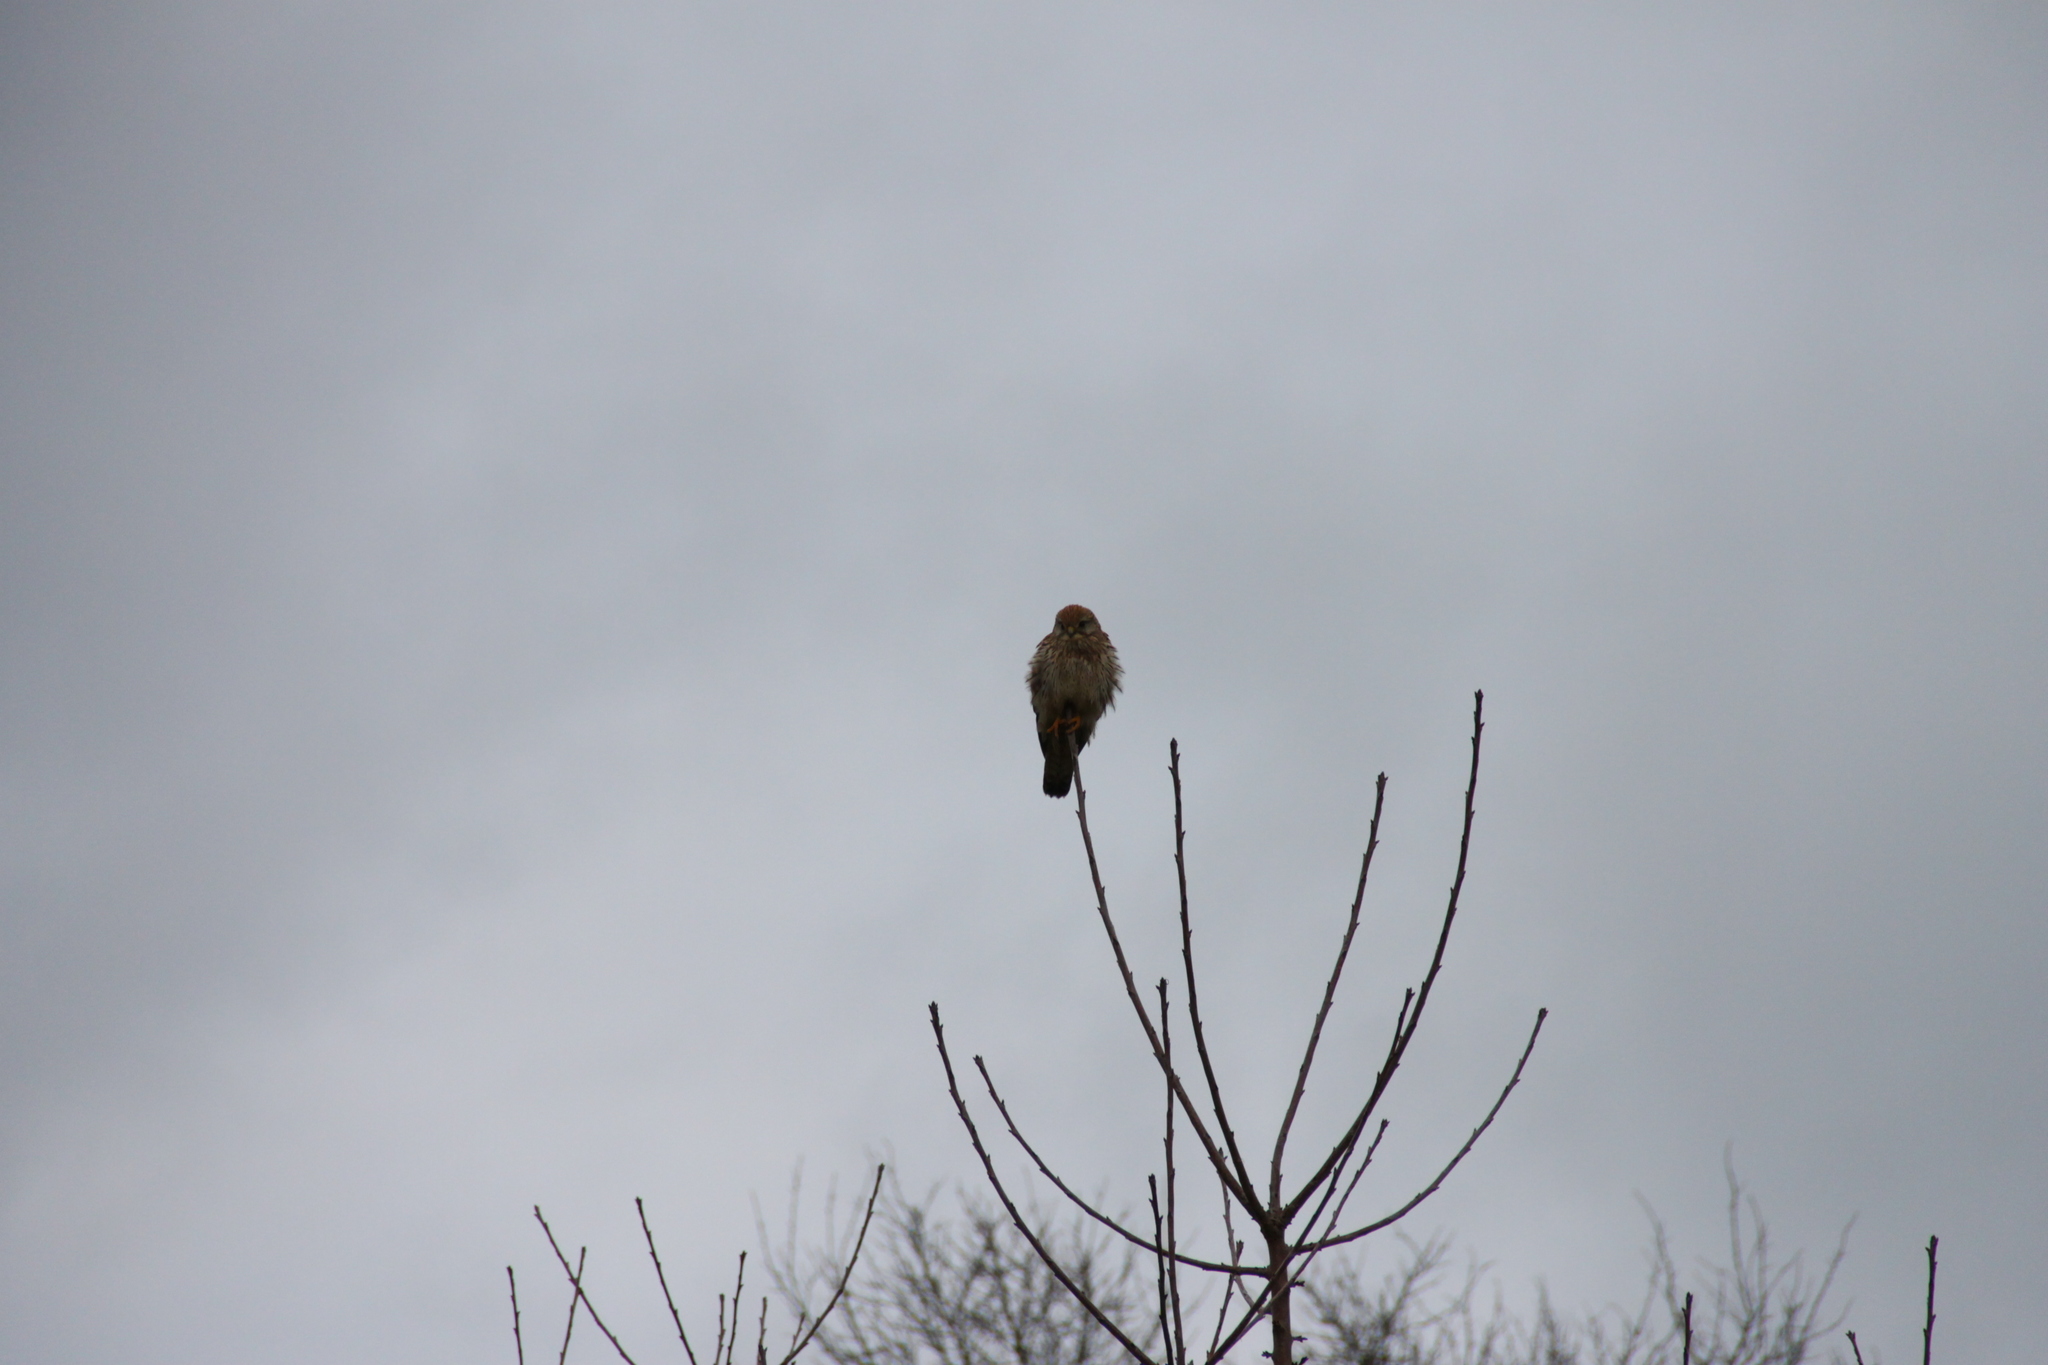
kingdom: Animalia
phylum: Chordata
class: Aves
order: Falconiformes
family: Falconidae
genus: Falco
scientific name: Falco tinnunculus
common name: Common kestrel
